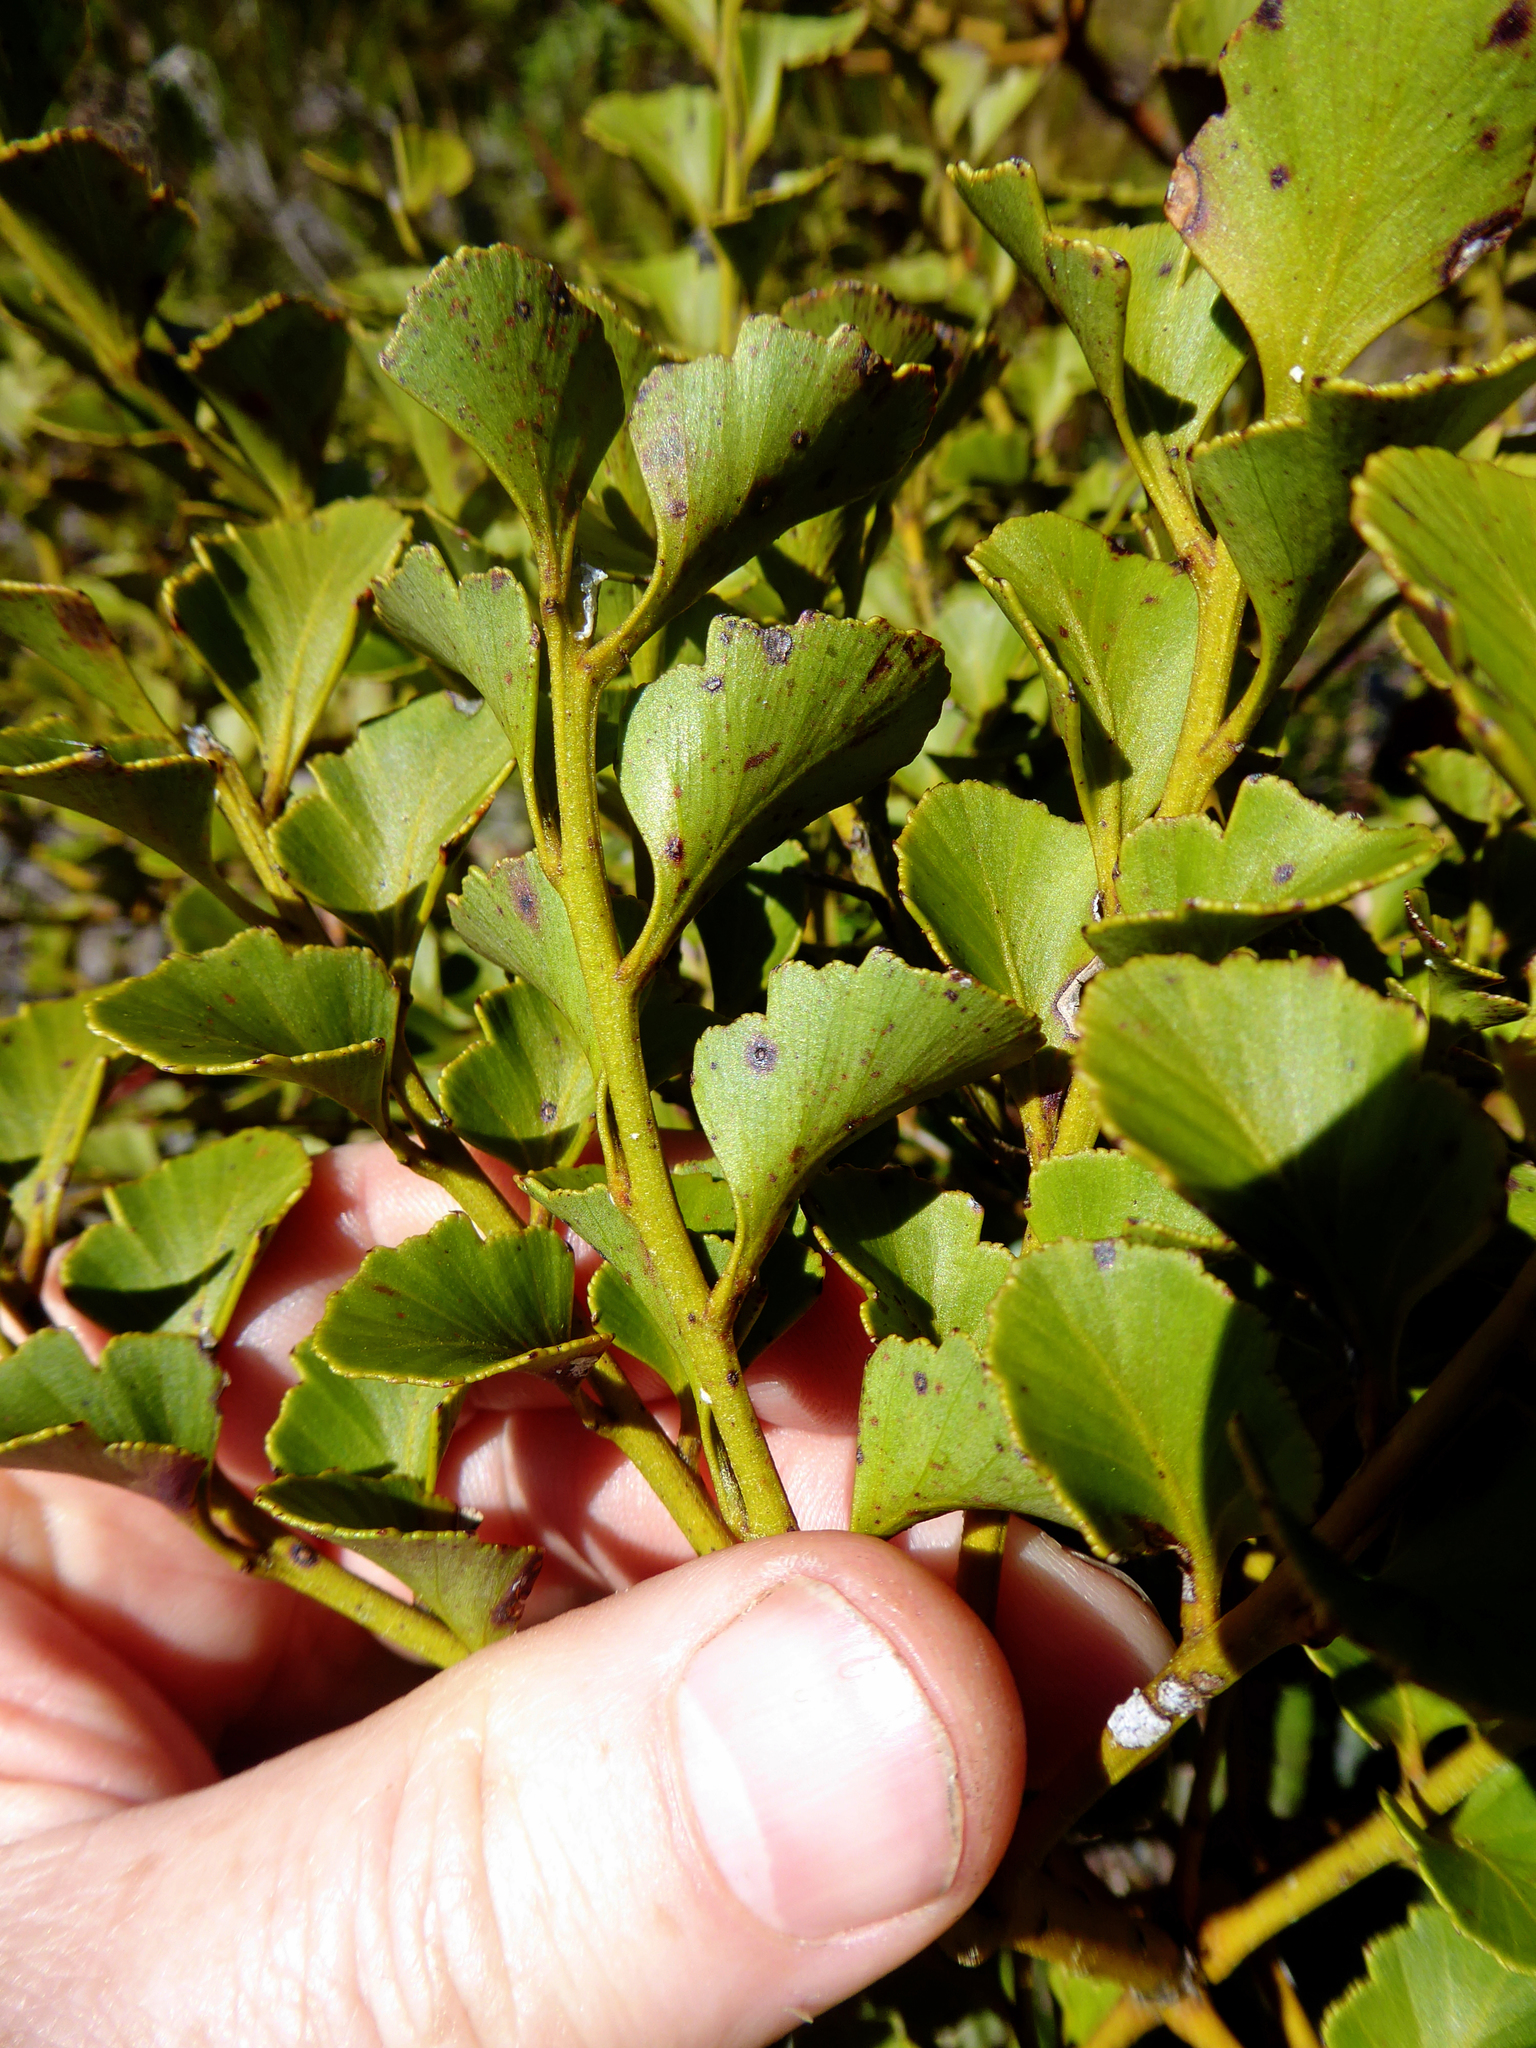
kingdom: Plantae
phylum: Tracheophyta
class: Pinopsida
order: Pinales
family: Phyllocladaceae
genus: Phyllocladus
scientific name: Phyllocladus toatoa
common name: Celery-top pine
